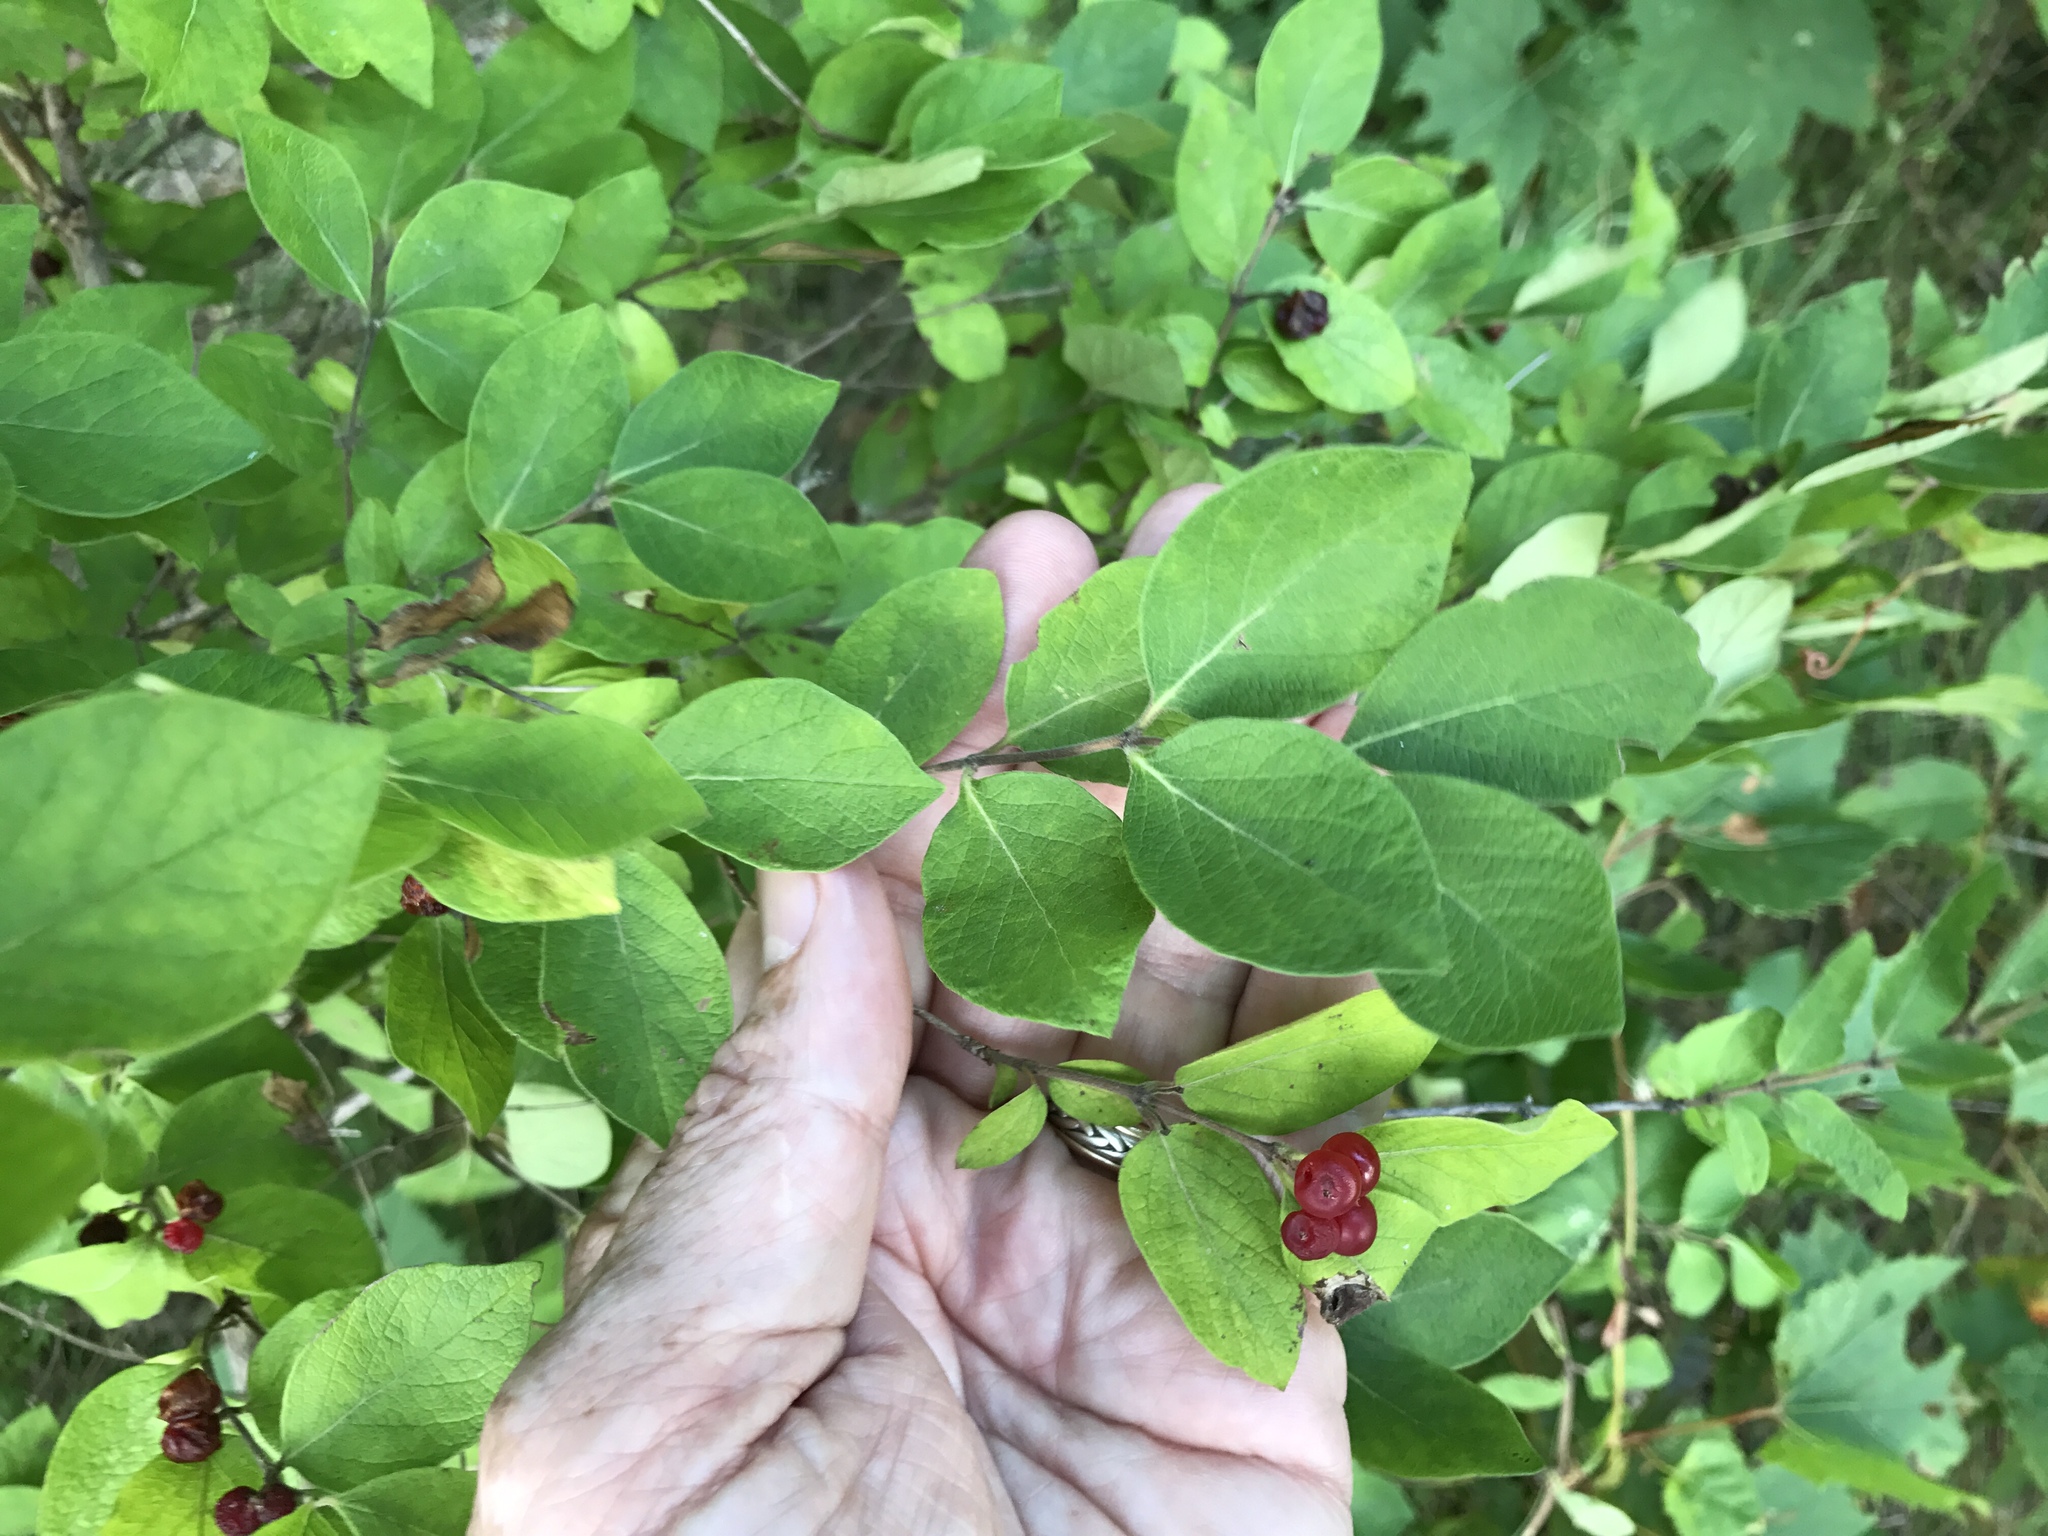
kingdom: Plantae
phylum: Tracheophyta
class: Magnoliopsida
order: Dipsacales
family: Caprifoliaceae
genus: Symphoricarpos
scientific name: Symphoricarpos orbiculatus
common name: Coralberry
